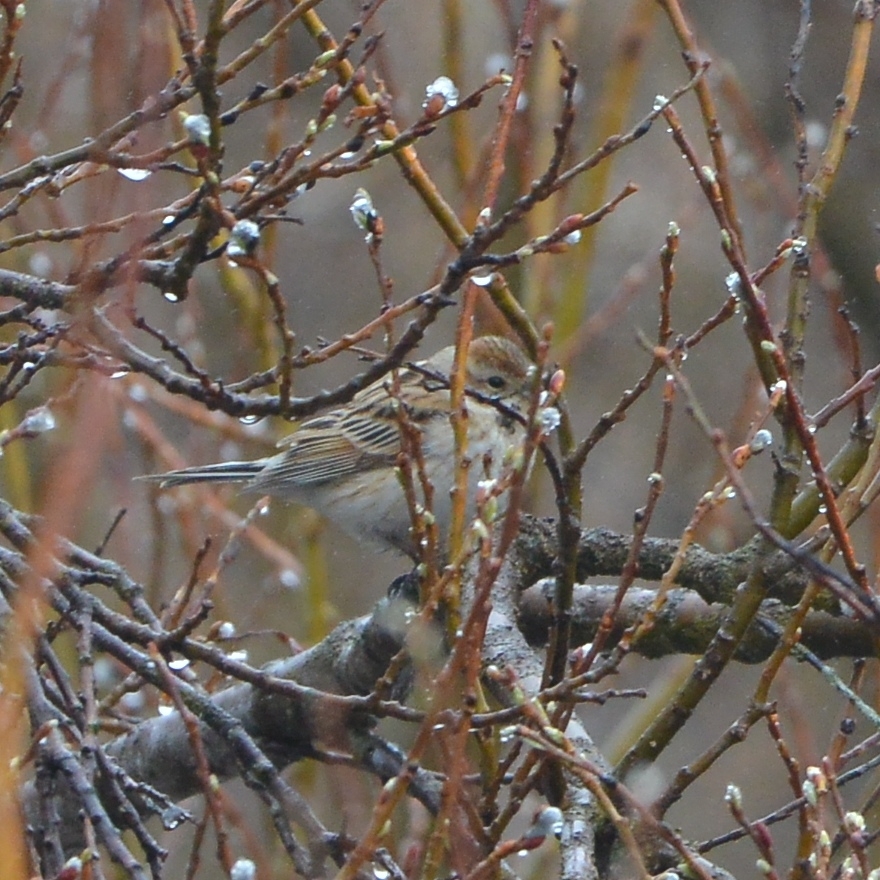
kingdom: Animalia
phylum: Chordata
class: Aves
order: Passeriformes
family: Emberizidae
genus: Emberiza
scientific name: Emberiza pallasi
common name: Pallas's reed bunting
